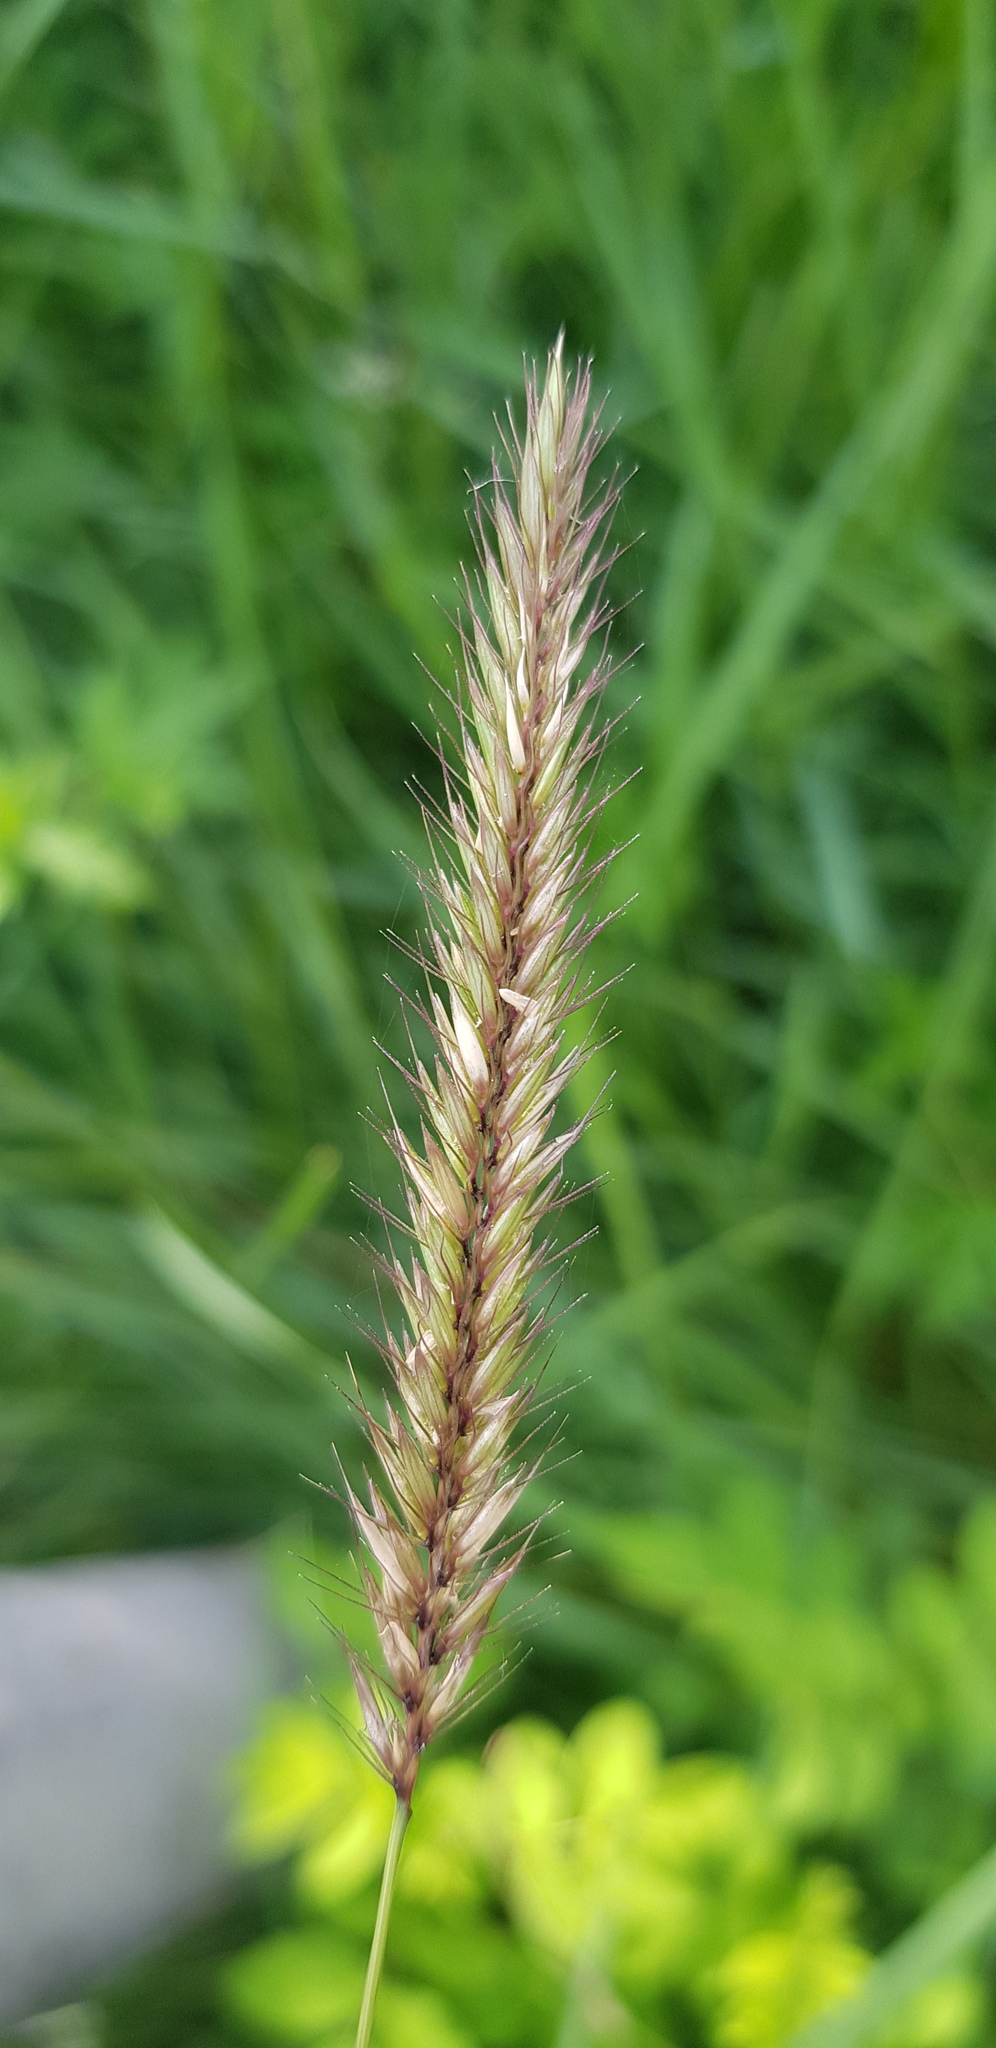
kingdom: Plantae
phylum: Tracheophyta
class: Liliopsida
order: Poales
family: Poaceae
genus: Hordeum
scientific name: Hordeum brevisubulatum
